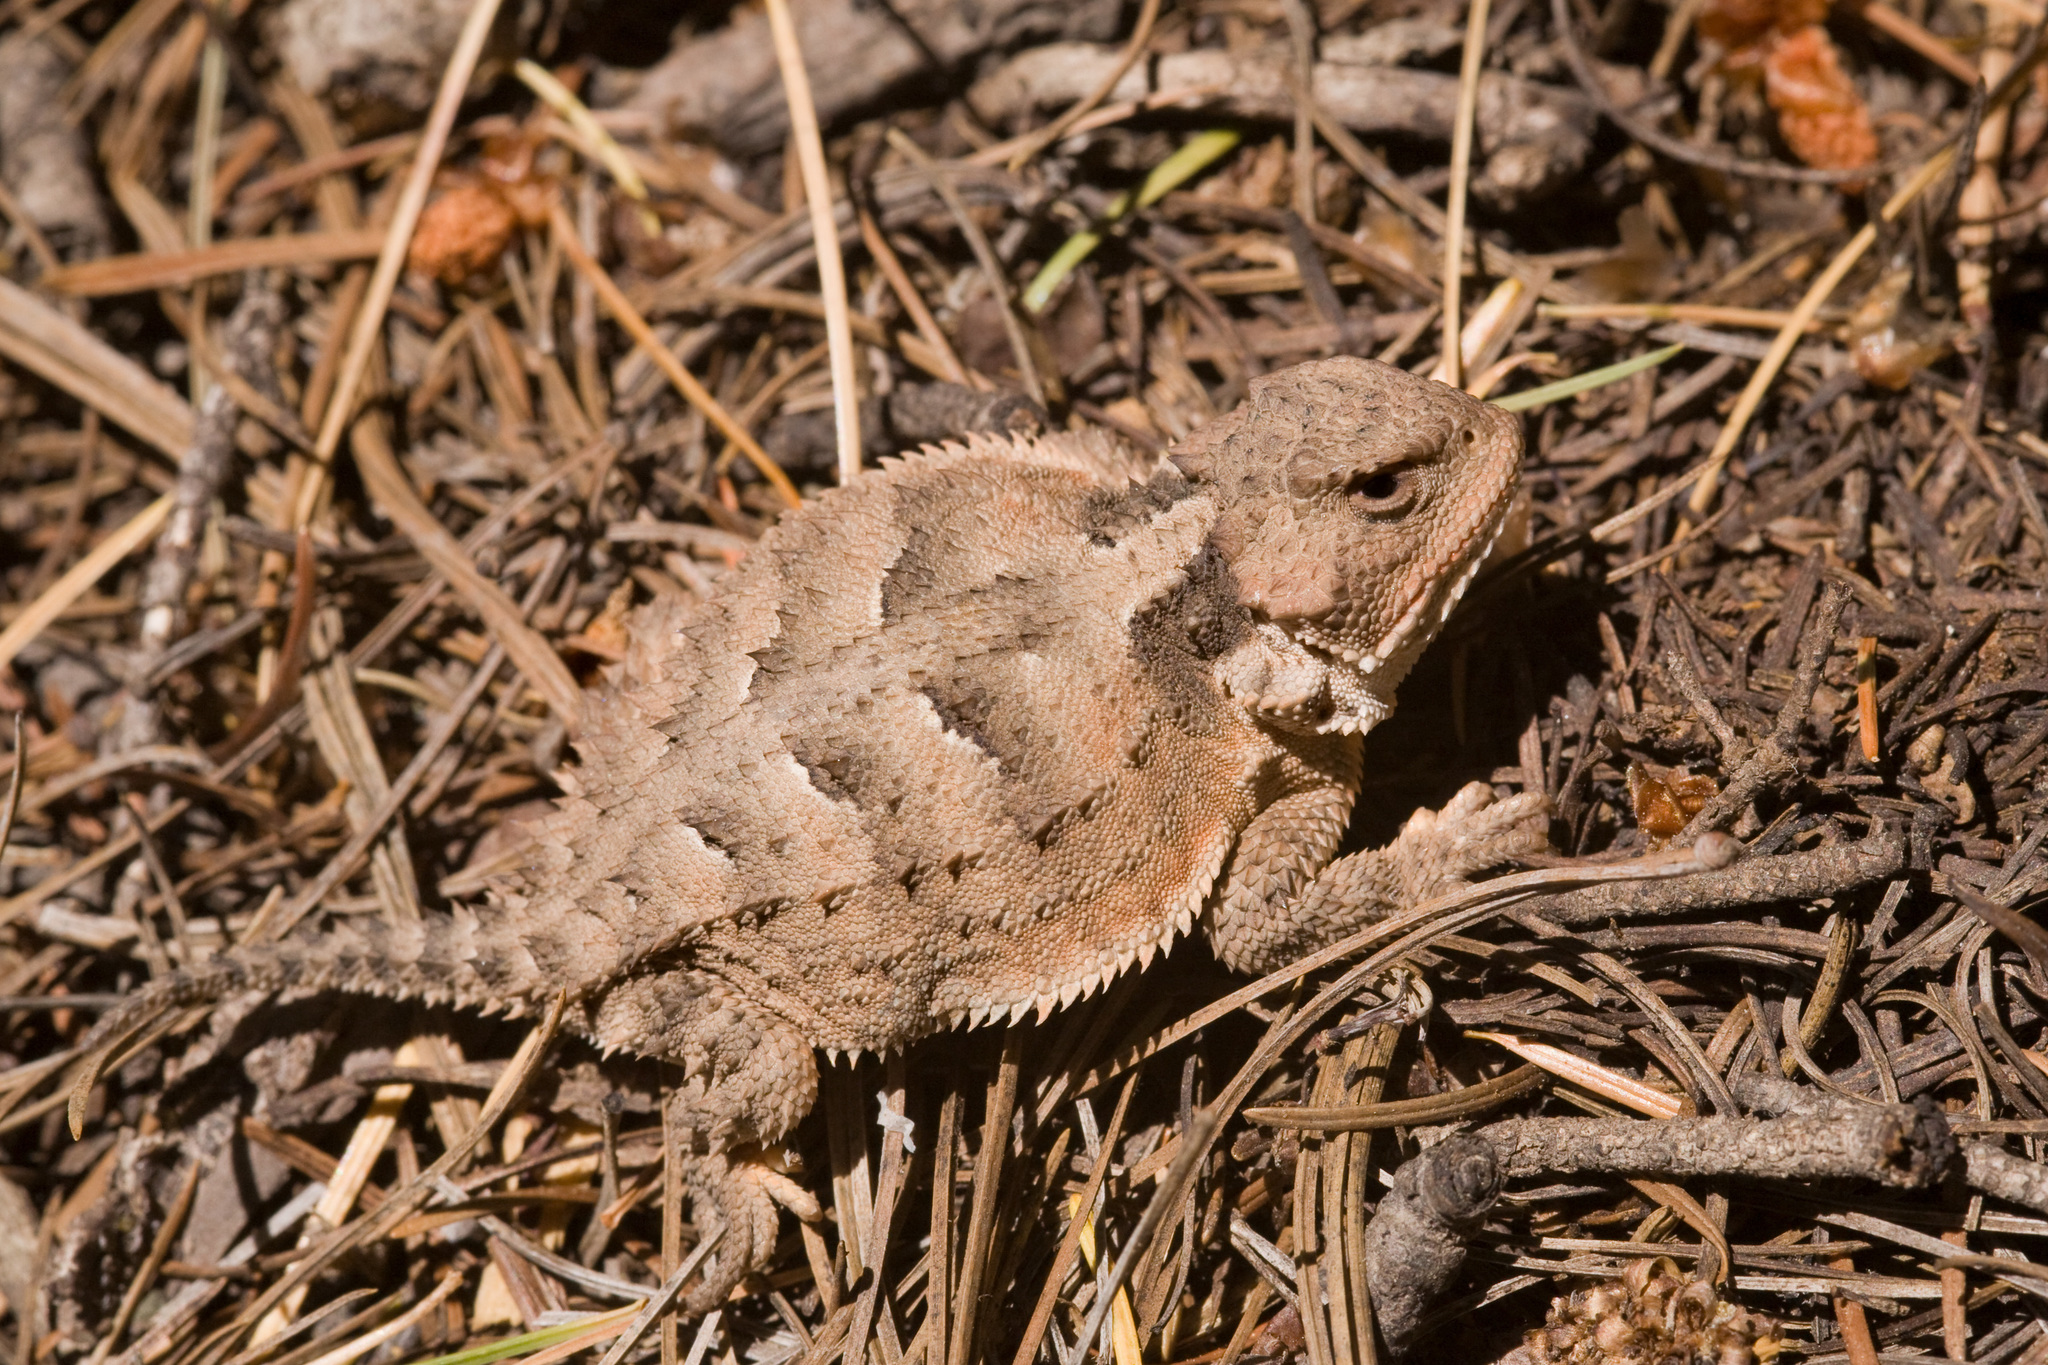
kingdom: Animalia
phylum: Chordata
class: Squamata
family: Phrynosomatidae
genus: Phrynosoma
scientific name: Phrynosoma hernandesi
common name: Greater short-horned lizard
